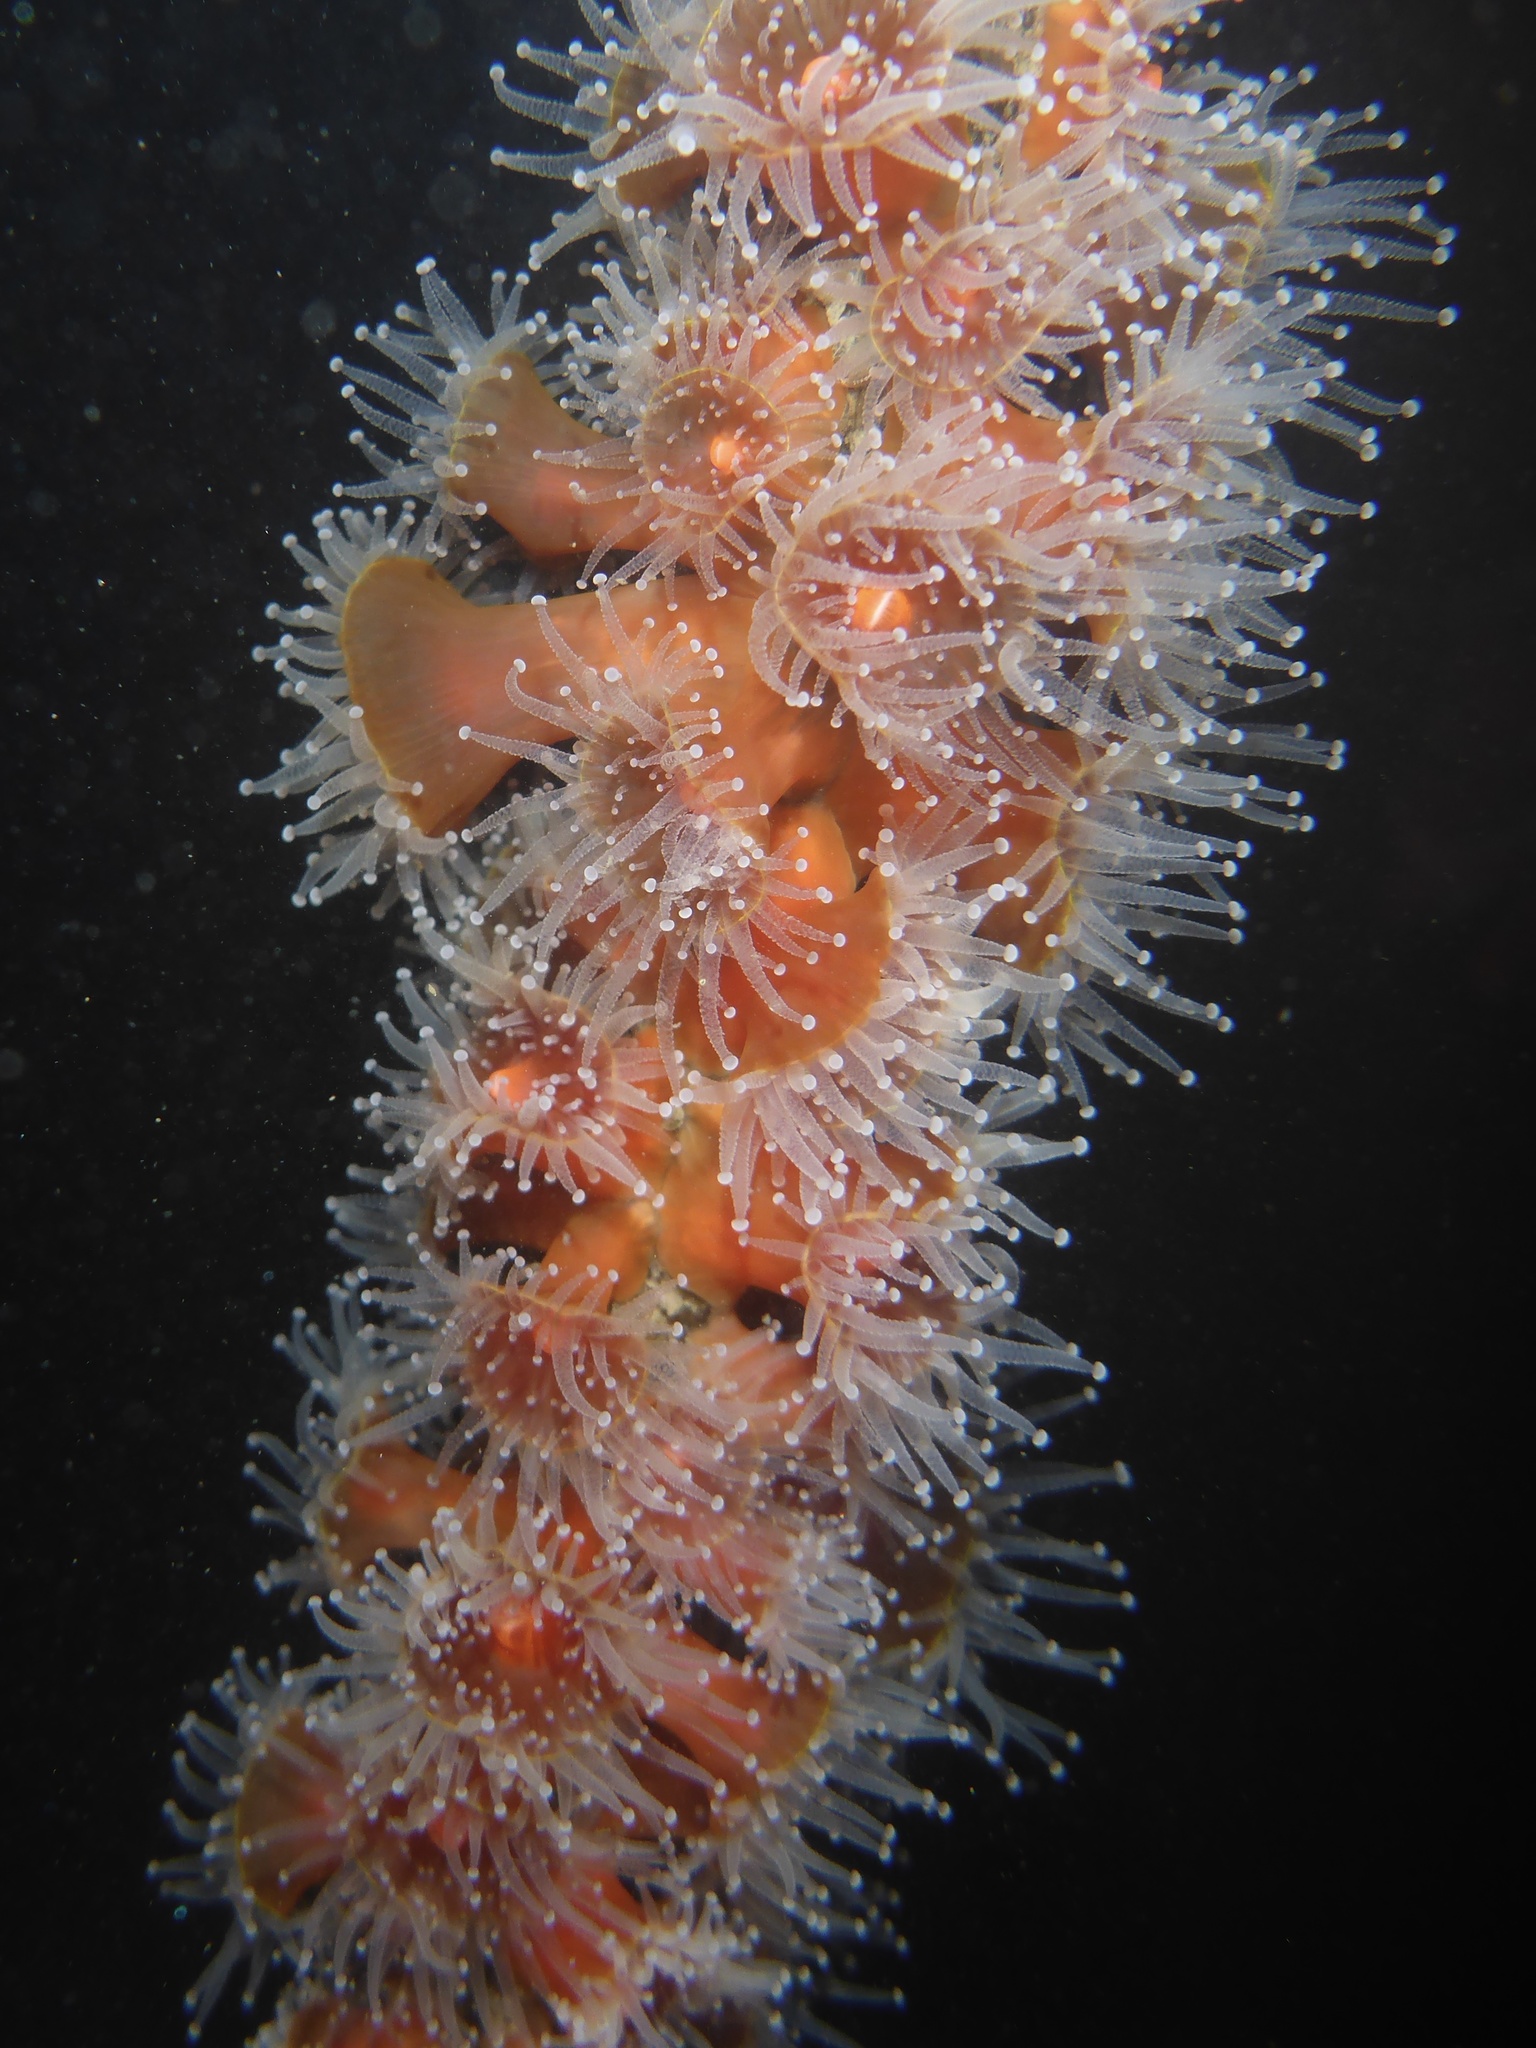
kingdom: Animalia
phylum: Cnidaria
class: Anthozoa
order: Corallimorpharia
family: Corallimorphidae
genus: Corynactis
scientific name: Corynactis californica
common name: Strawberry corallimorpharian
